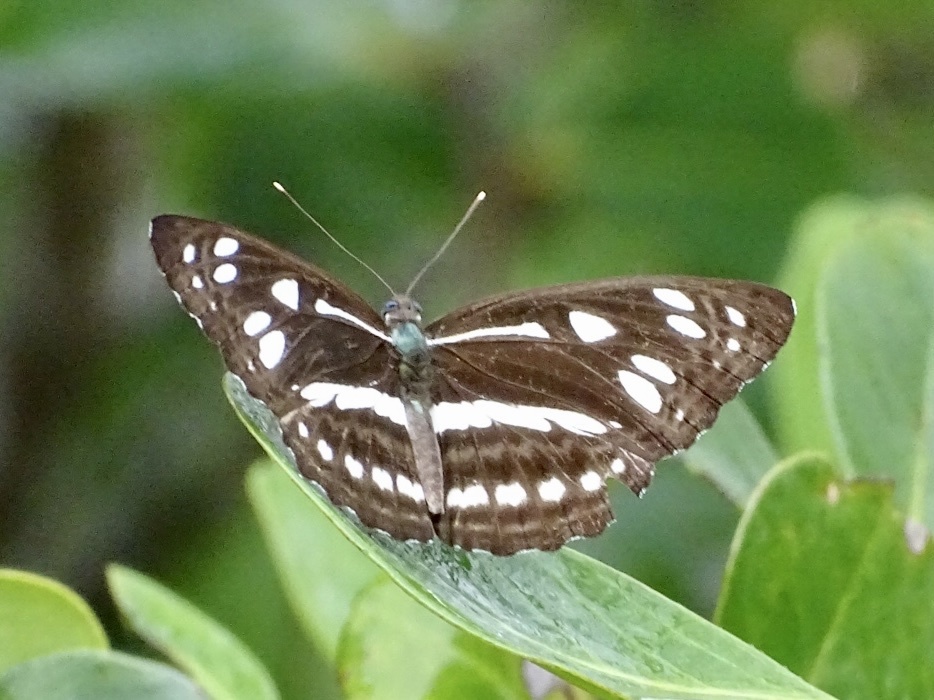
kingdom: Animalia
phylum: Arthropoda
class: Insecta
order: Lepidoptera
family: Nymphalidae
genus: Phaedyma
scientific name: Phaedyma columella
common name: Short banded sailer
